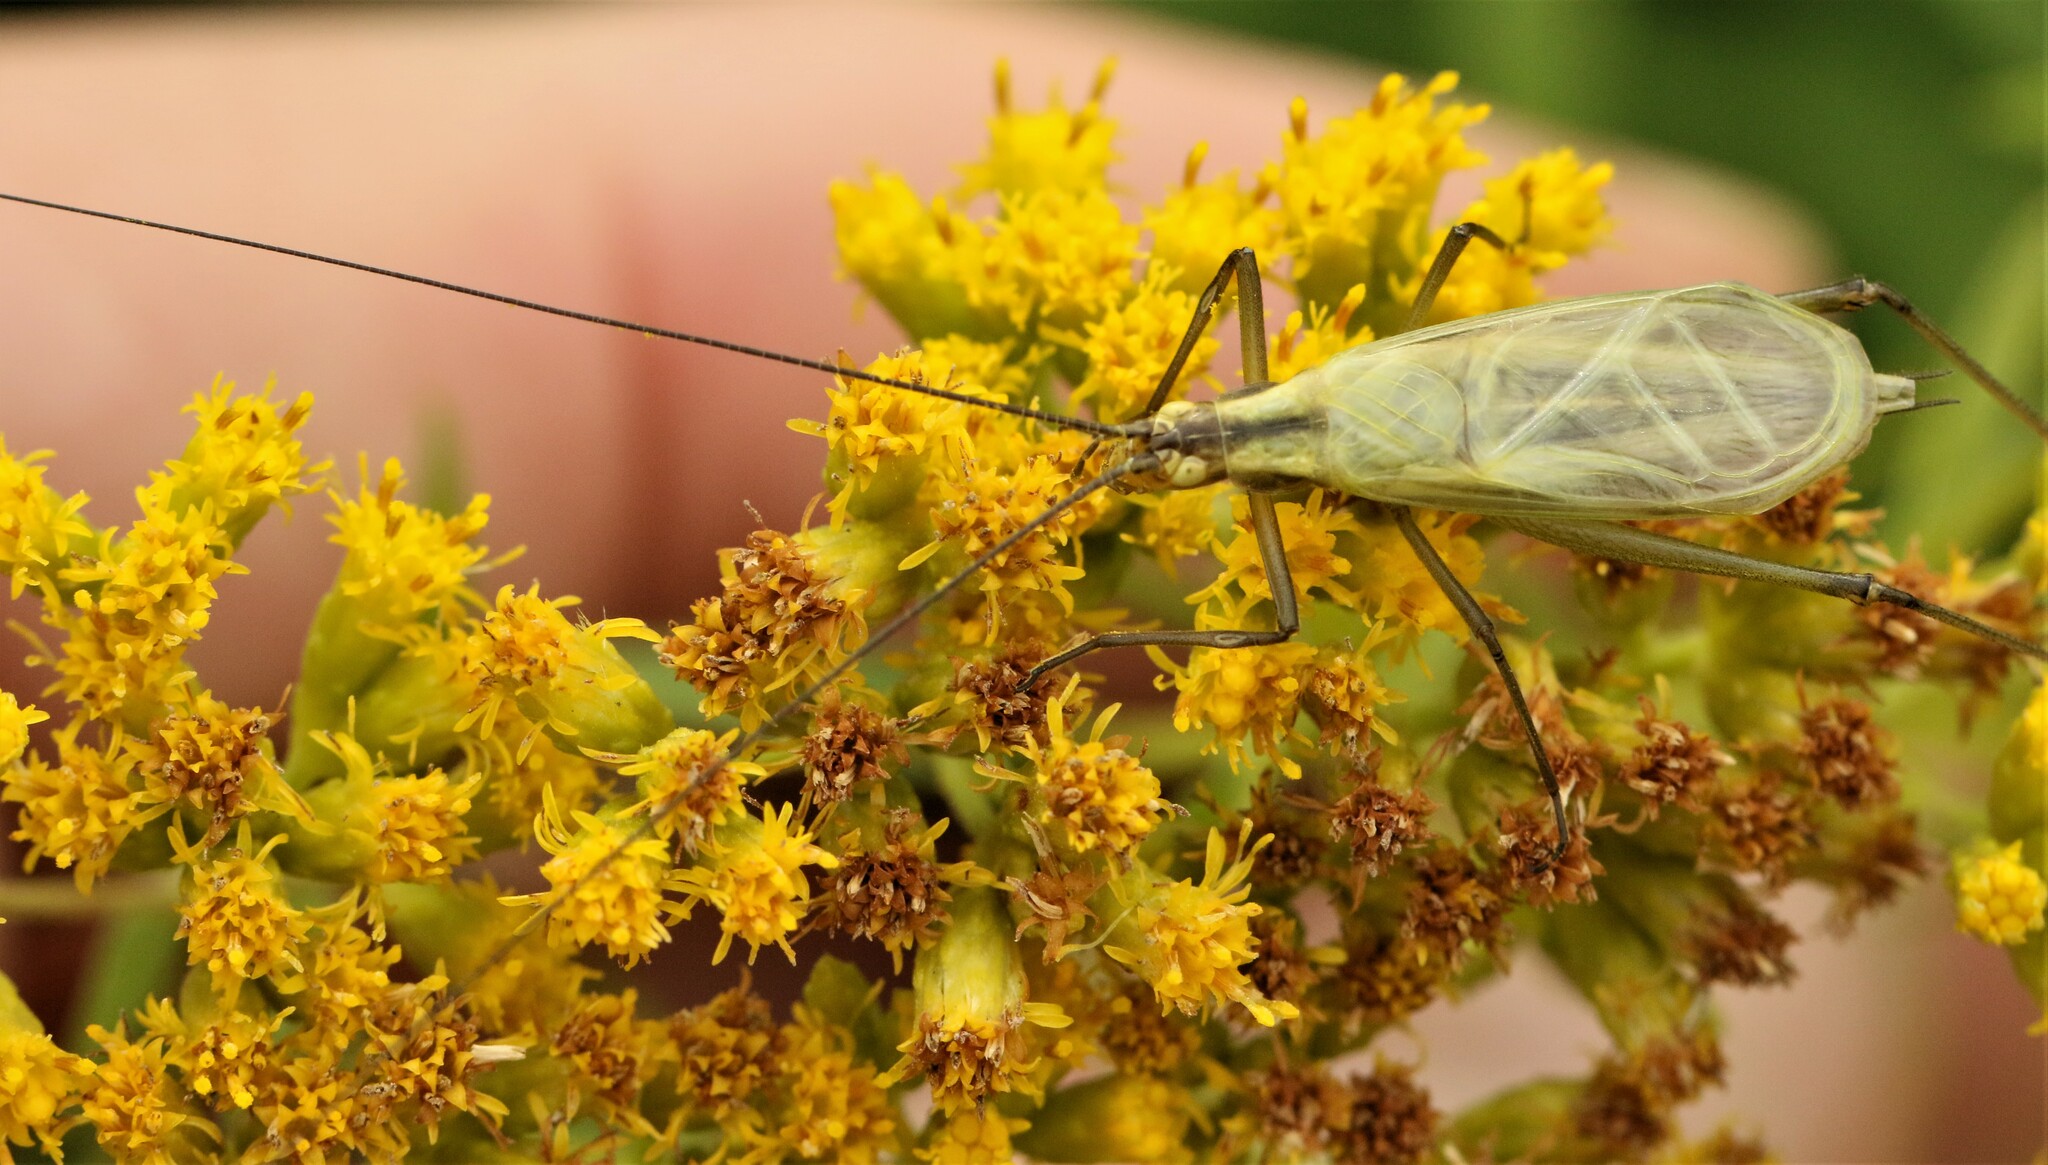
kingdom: Animalia
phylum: Arthropoda
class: Insecta
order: Orthoptera
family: Gryllidae
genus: Oecanthus
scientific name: Oecanthus nigricornis
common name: Black-horned tree cricket
